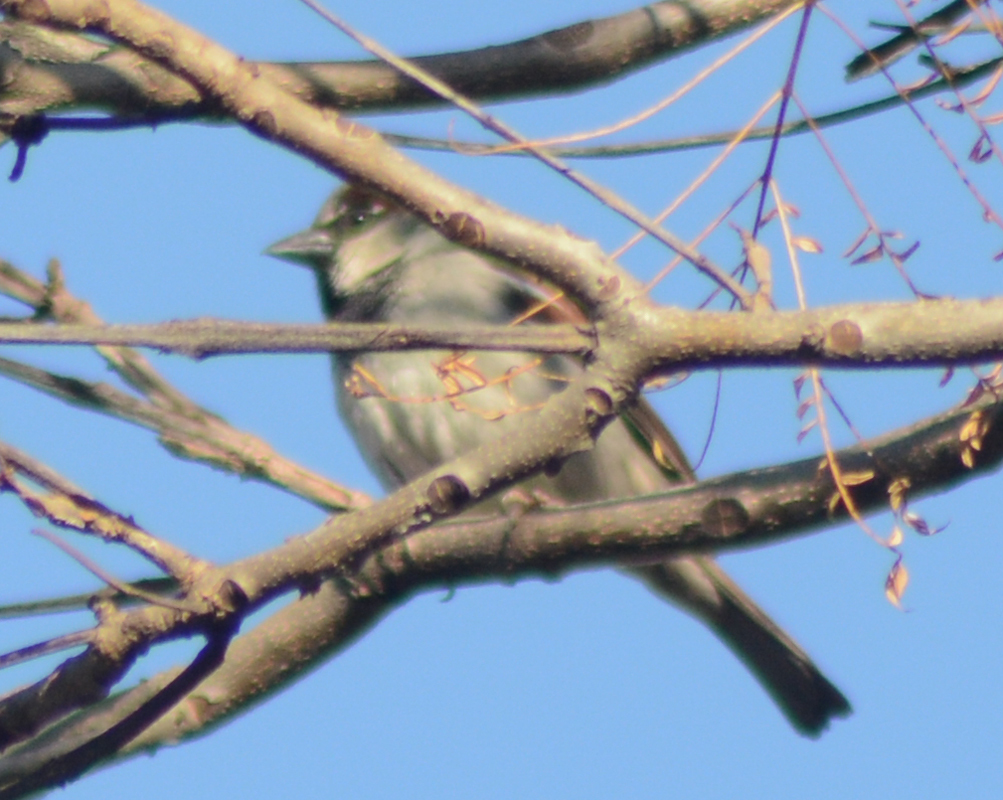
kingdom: Animalia
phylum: Chordata
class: Aves
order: Passeriformes
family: Passeridae
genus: Passer
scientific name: Passer domesticus
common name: House sparrow
